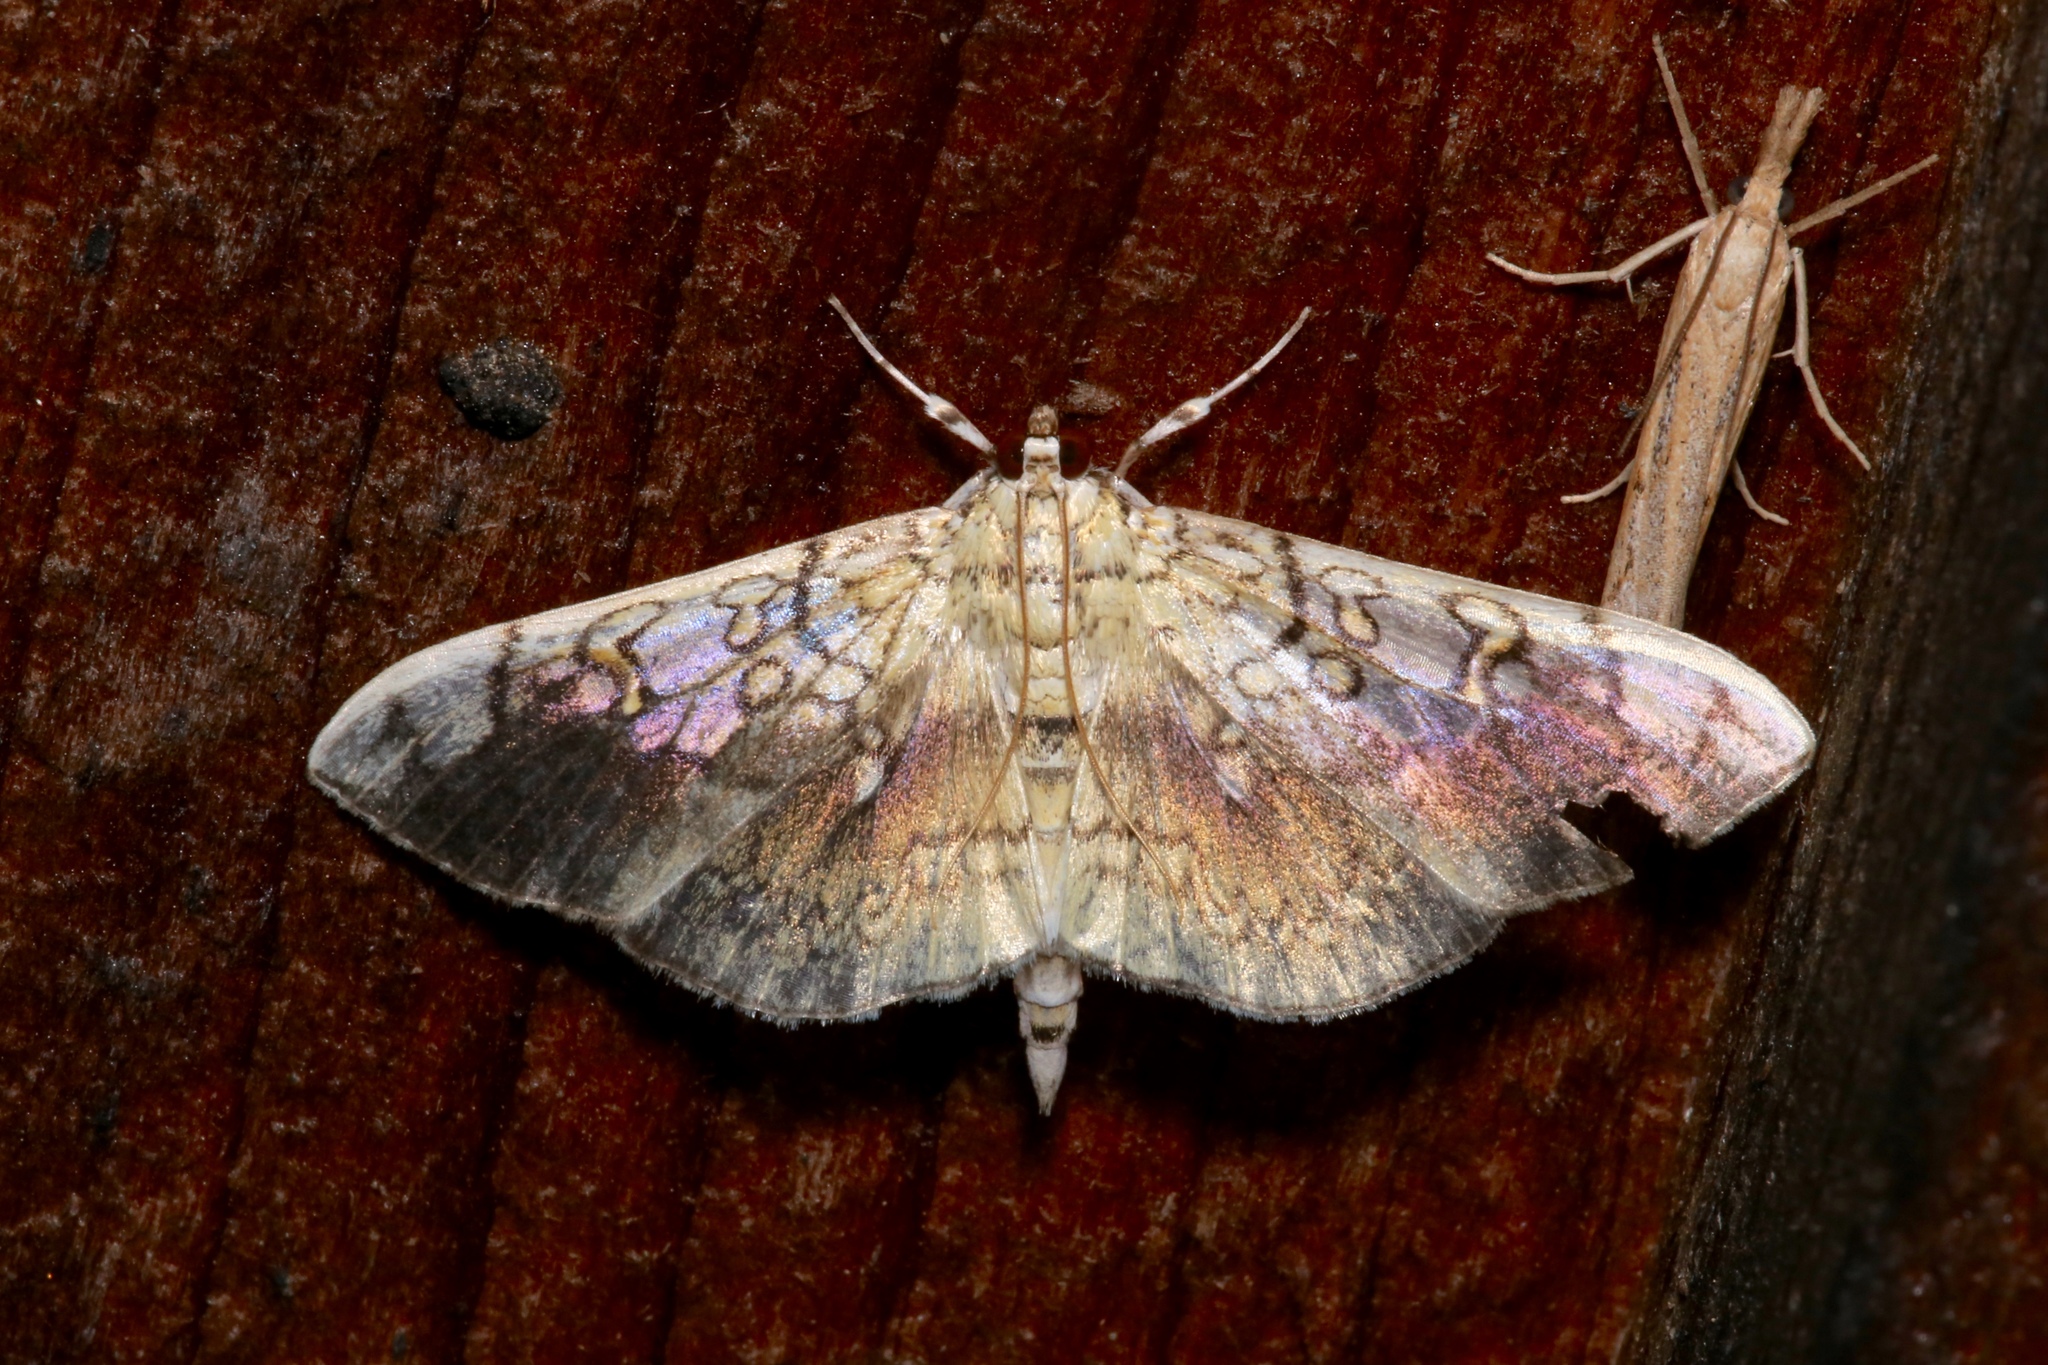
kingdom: Animalia
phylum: Arthropoda
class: Insecta
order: Lepidoptera
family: Crambidae
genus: Pantographa
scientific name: Pantographa limata
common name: Basswood leafroller moth
